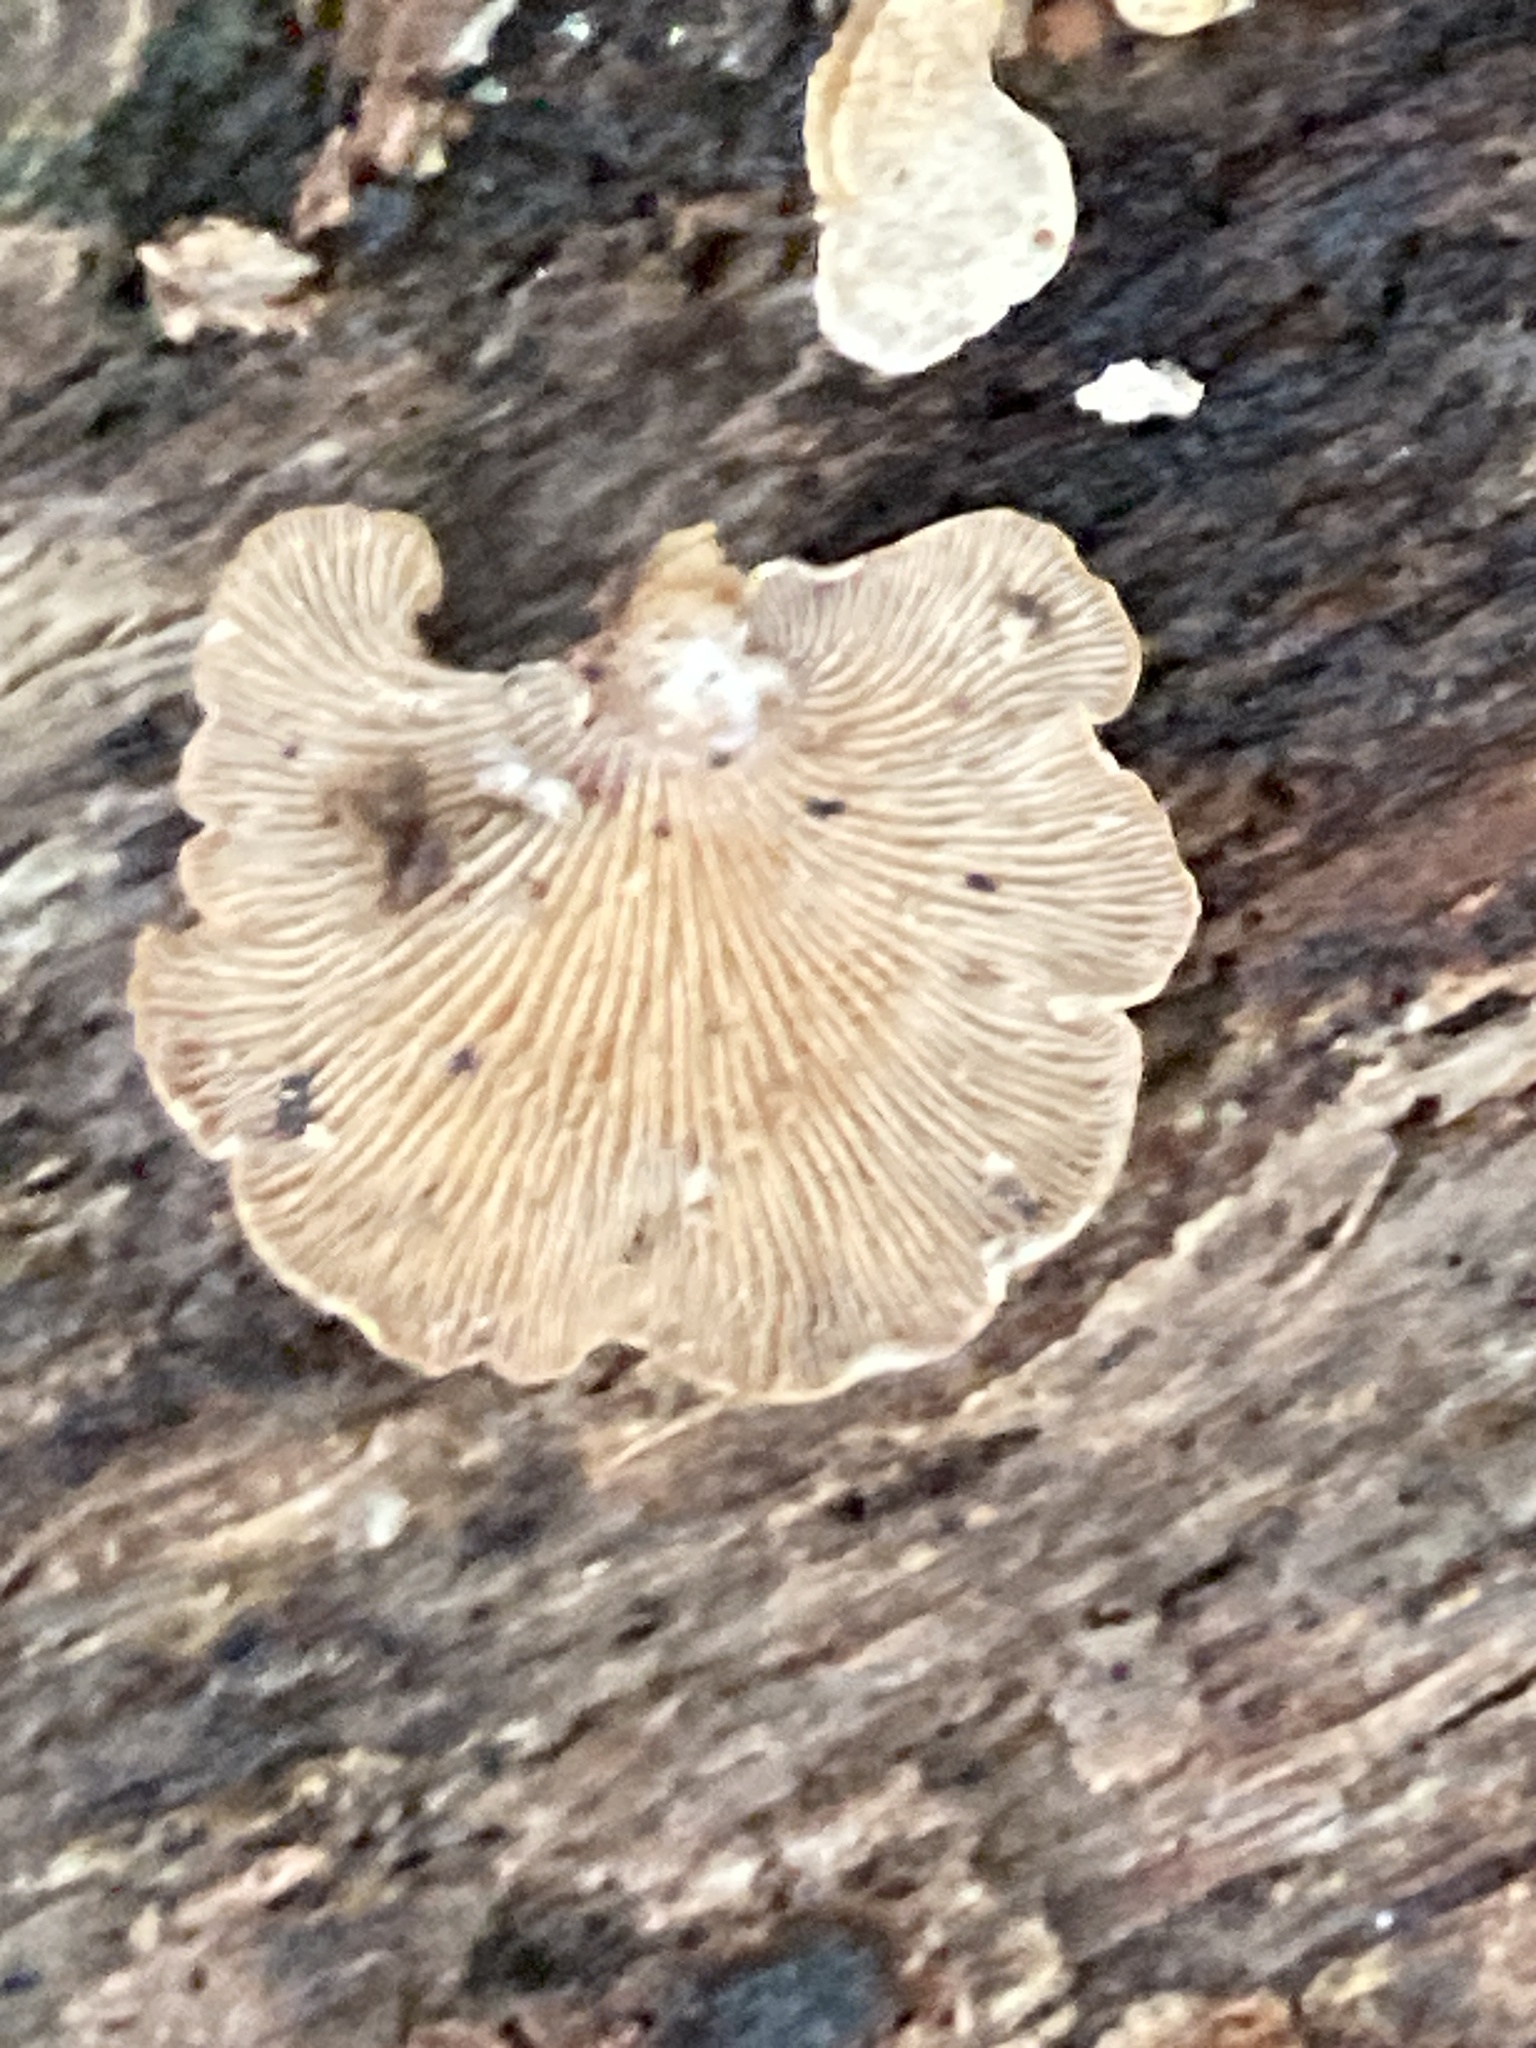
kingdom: Fungi
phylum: Basidiomycota
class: Agaricomycetes
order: Agaricales
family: Mycenaceae
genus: Panellus
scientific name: Panellus stipticus
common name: Bitter oysterling
